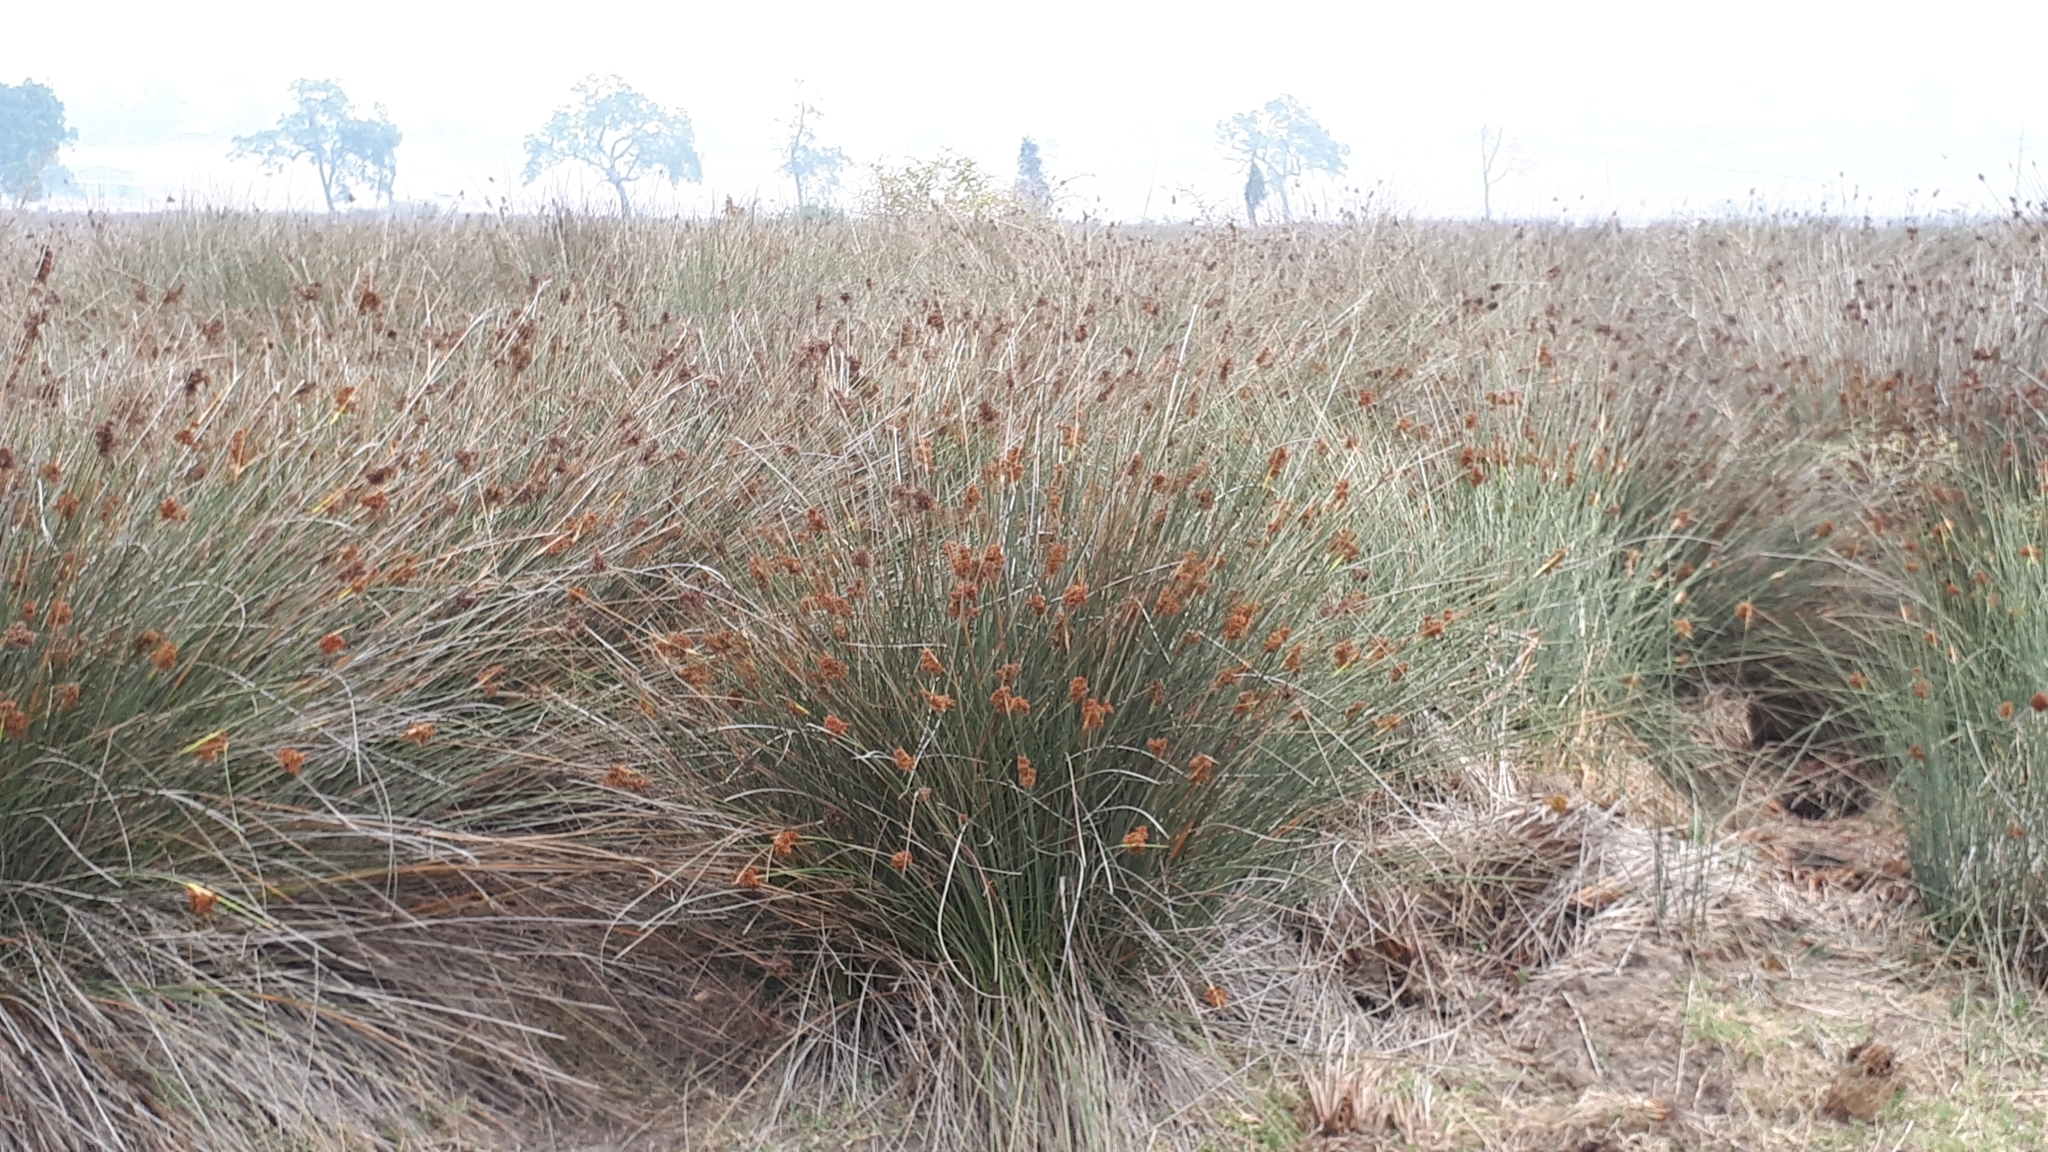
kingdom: Plantae
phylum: Tracheophyta
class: Liliopsida
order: Poales
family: Juncaceae
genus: Juncus
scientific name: Juncus acutus
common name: Sharp rush
